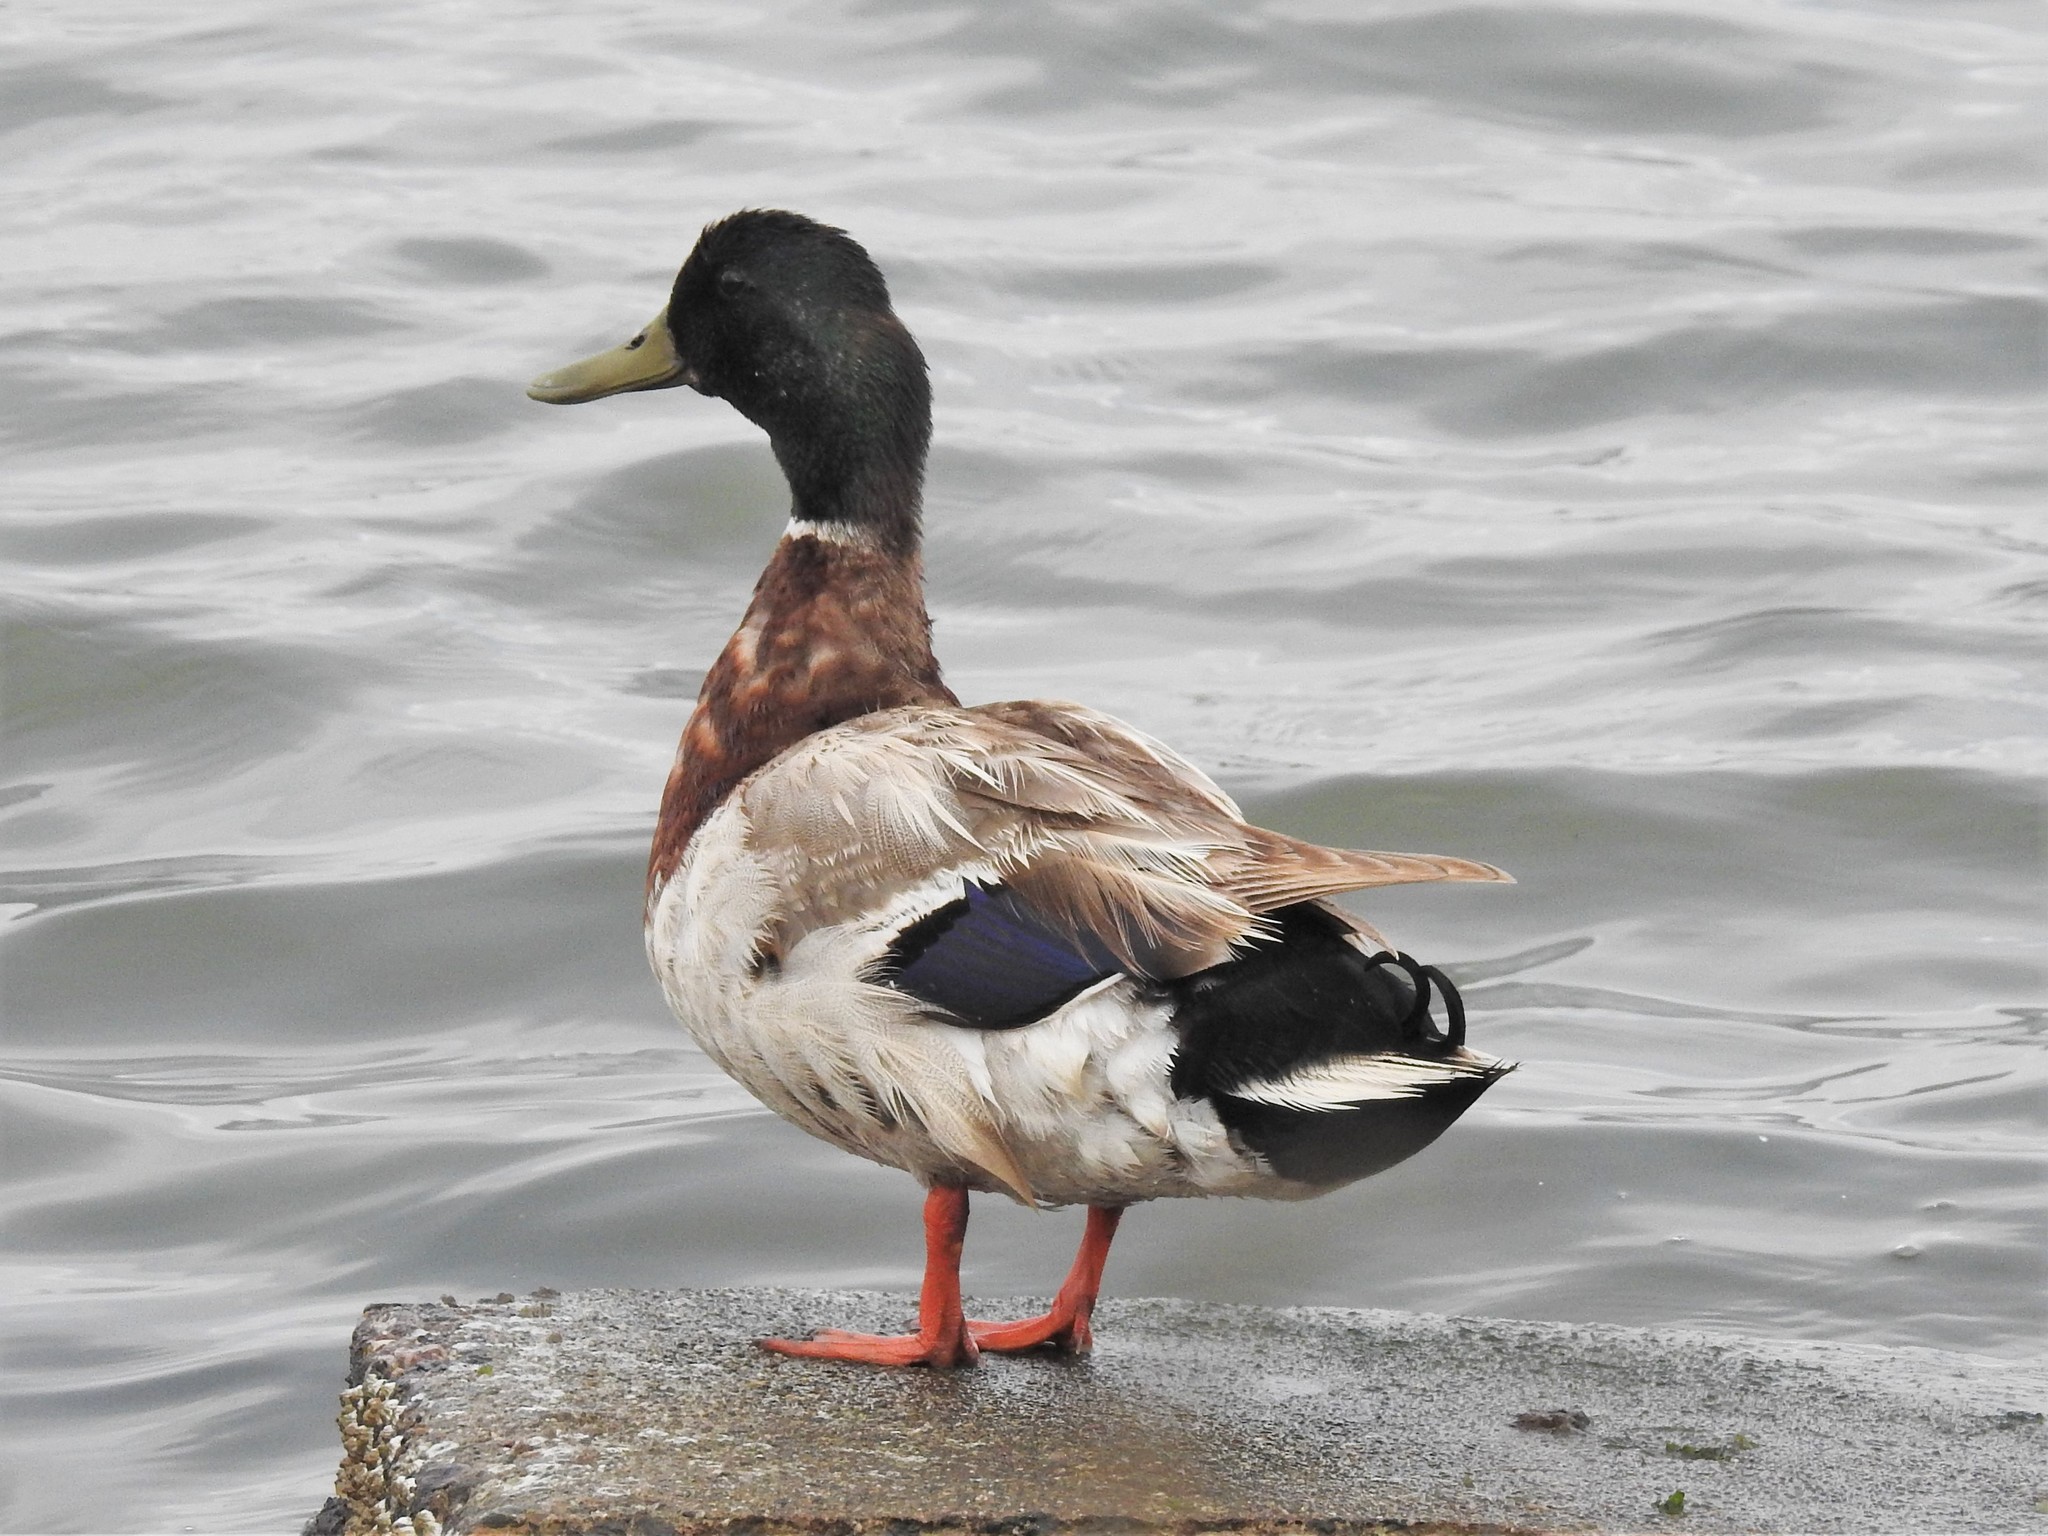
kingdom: Animalia
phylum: Chordata
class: Aves
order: Anseriformes
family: Anatidae
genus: Anas
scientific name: Anas platyrhynchos
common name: Mallard
